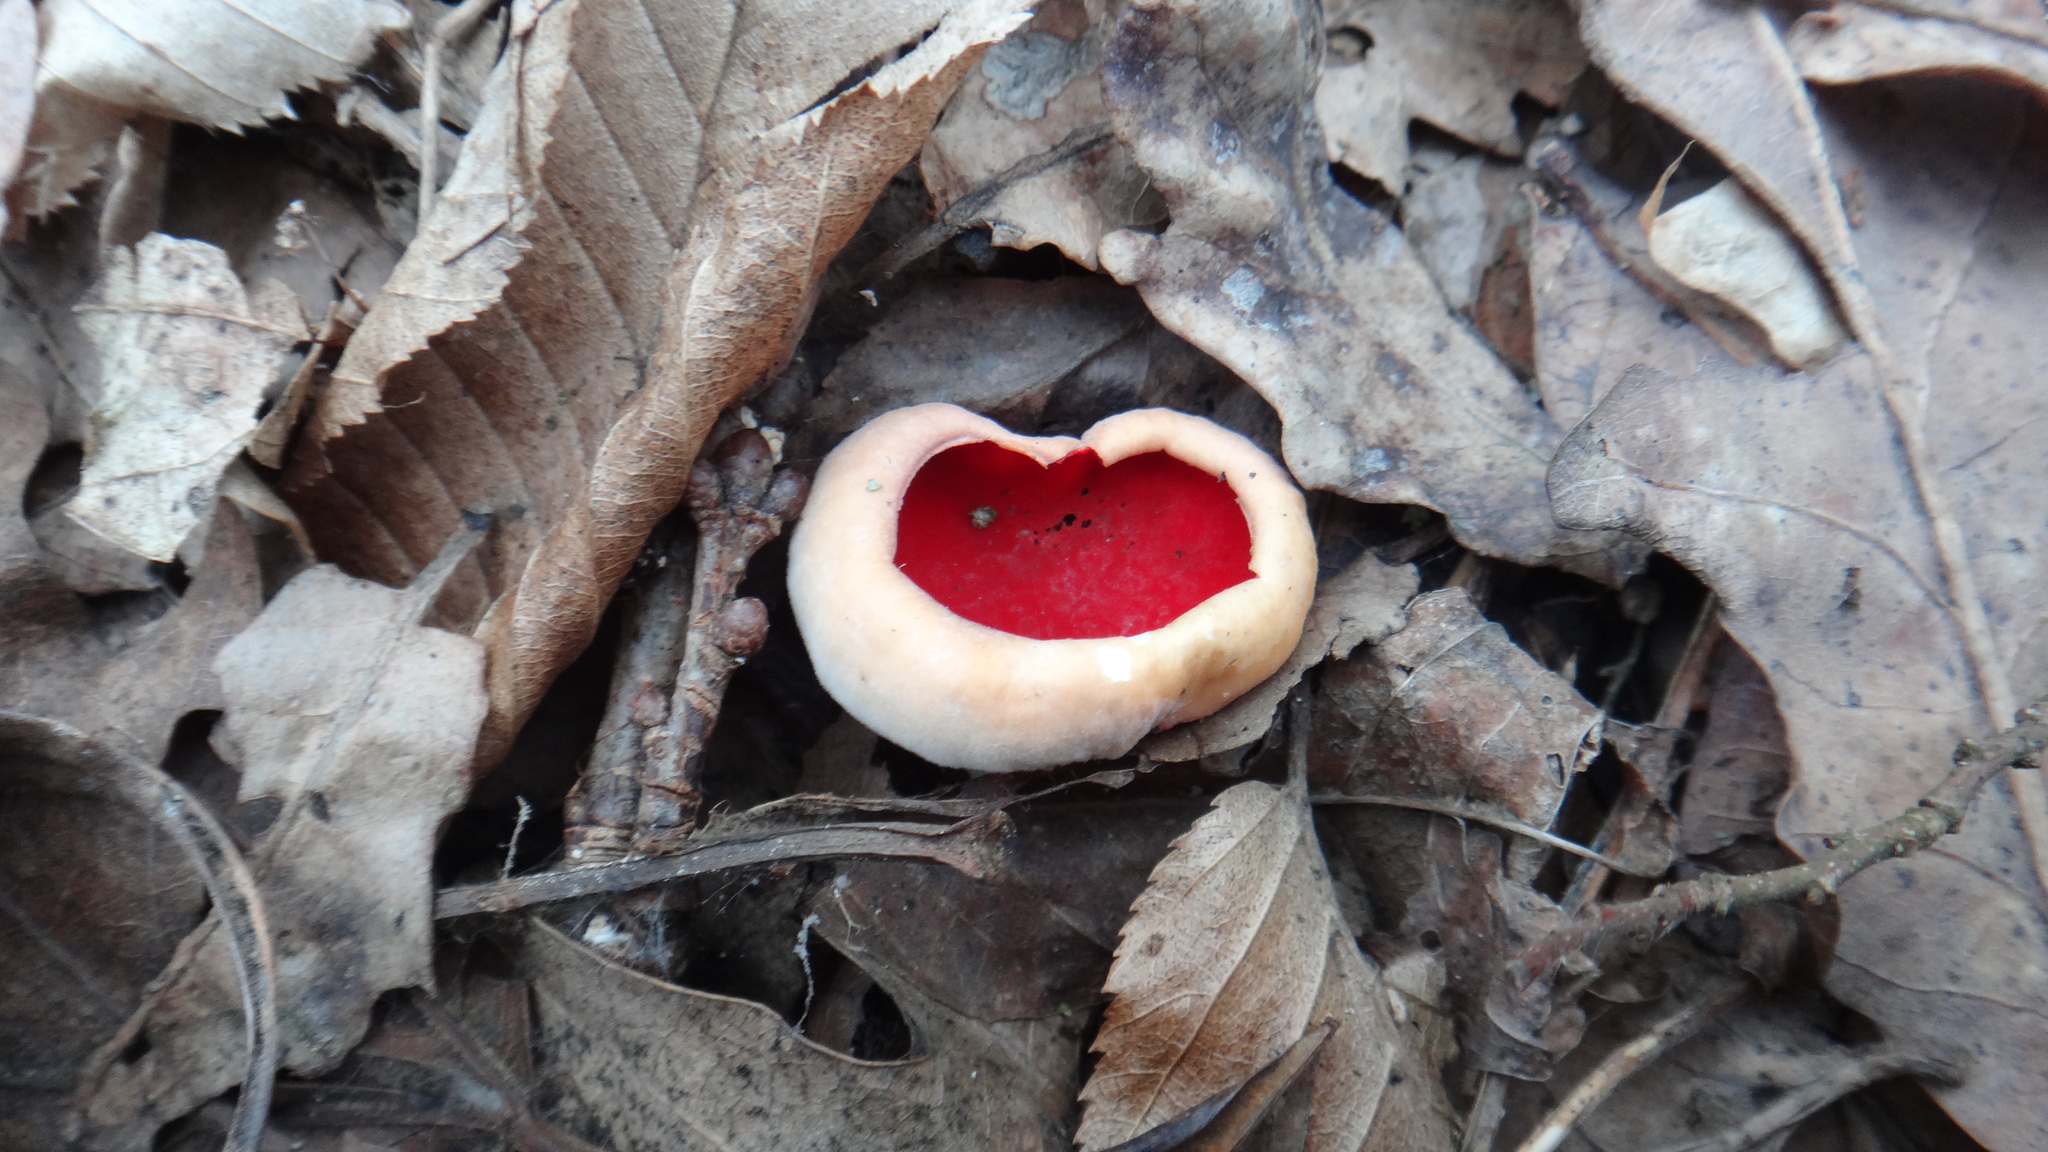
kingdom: Fungi
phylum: Ascomycota
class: Pezizomycetes
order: Pezizales
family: Sarcoscyphaceae
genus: Sarcoscypha
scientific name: Sarcoscypha
